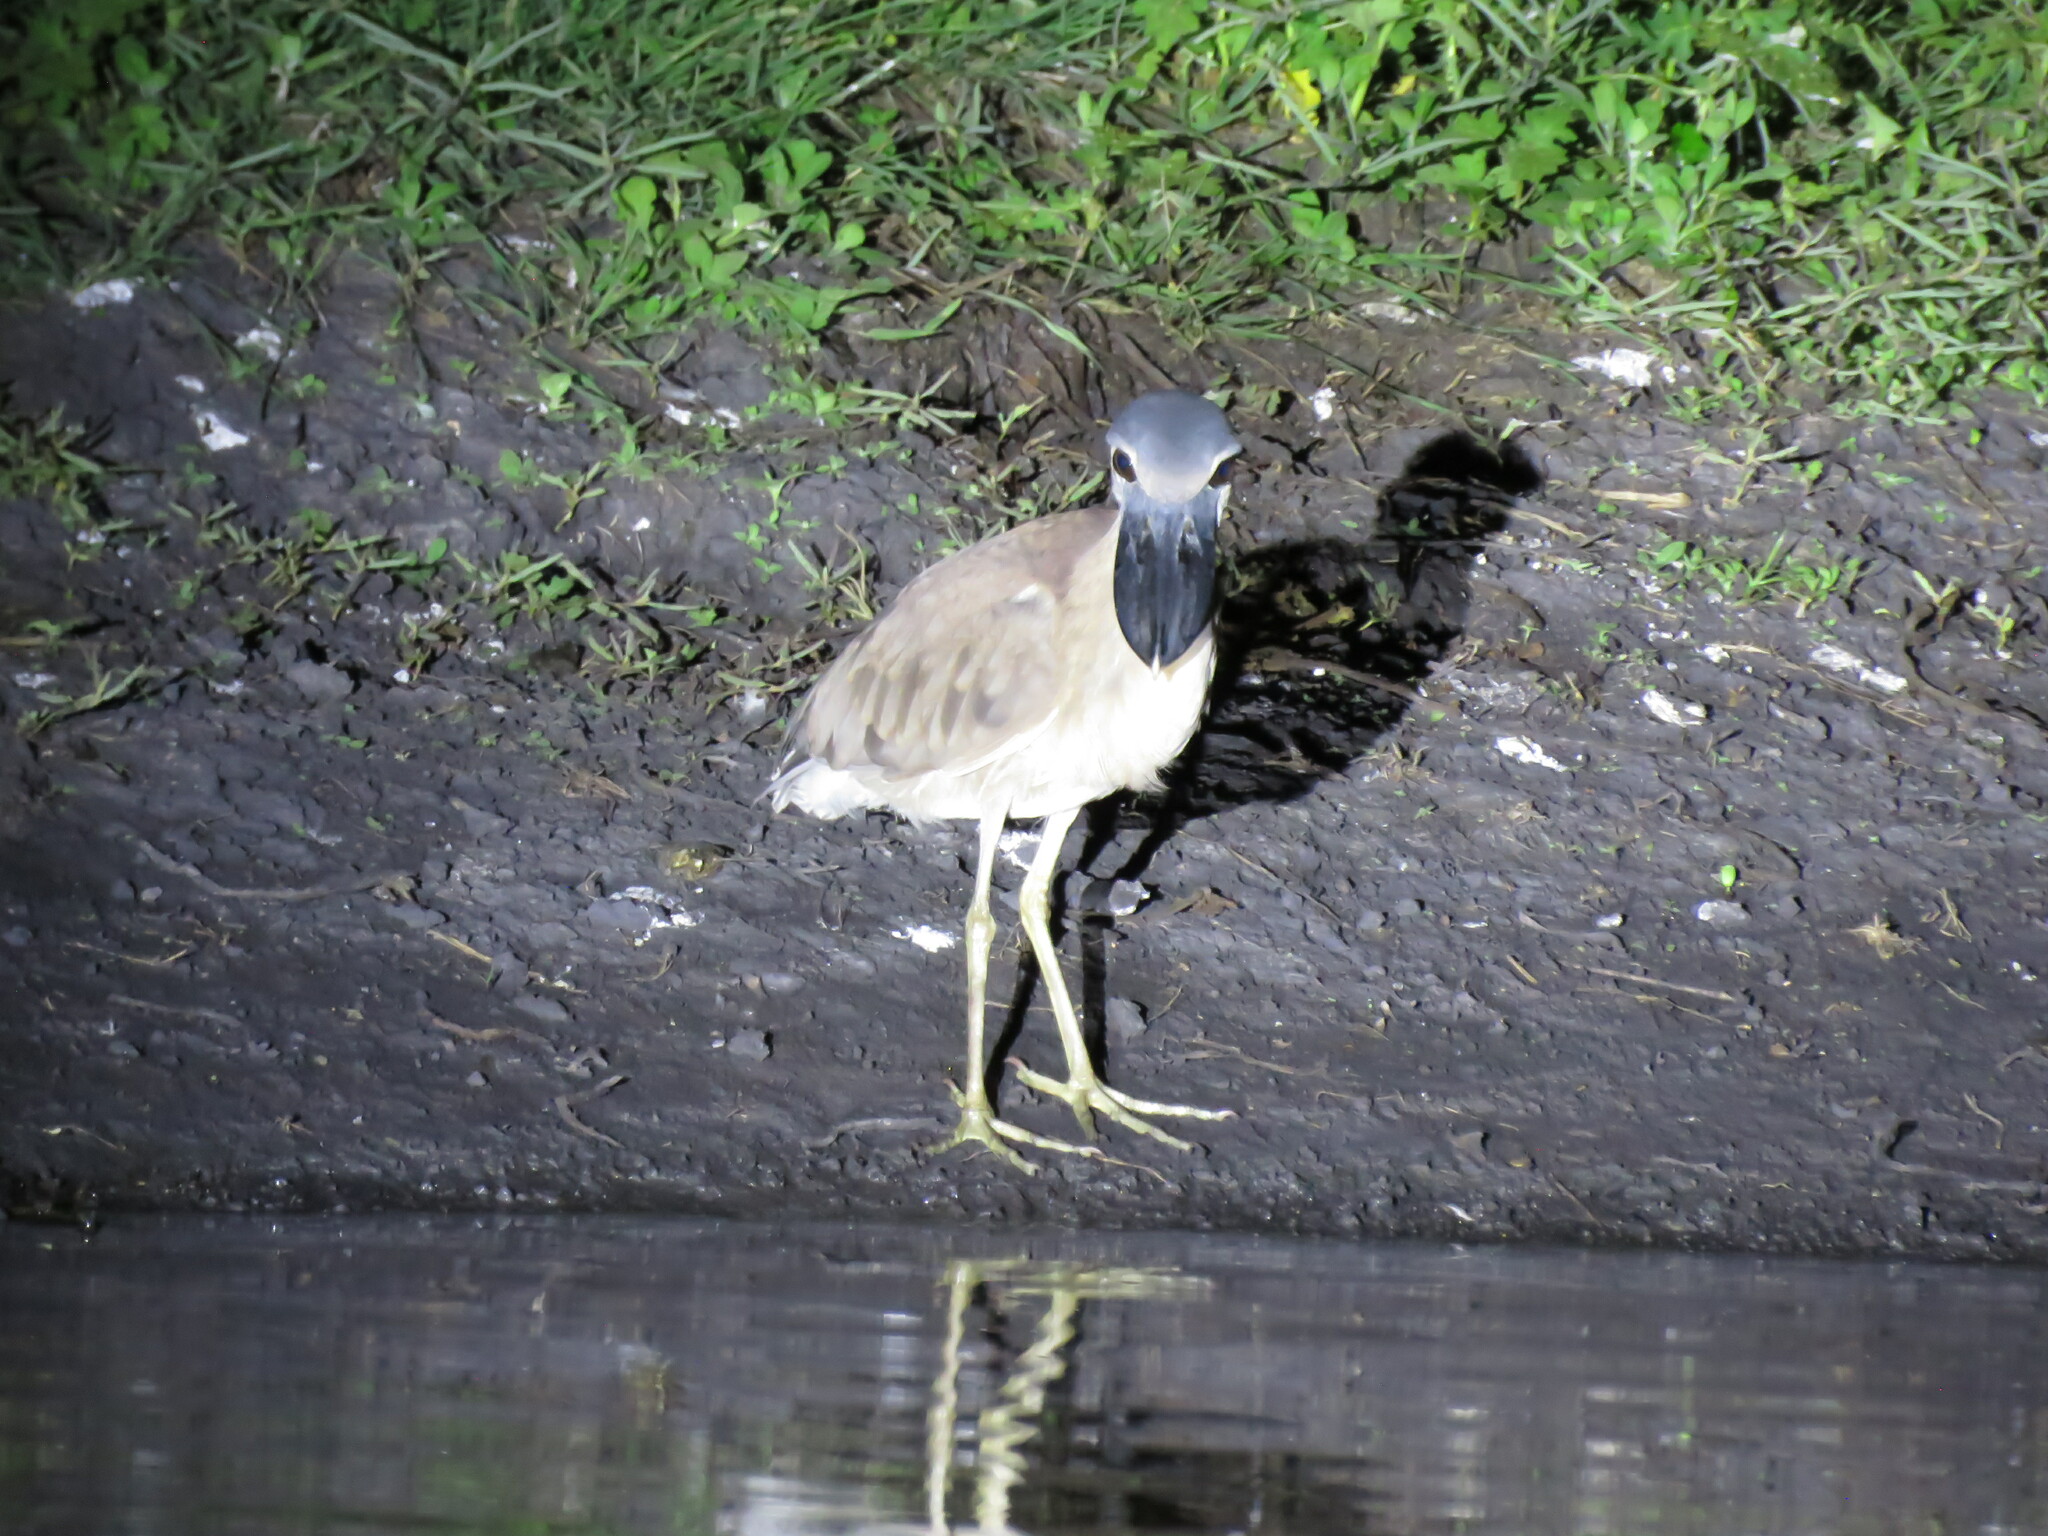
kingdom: Animalia
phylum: Chordata
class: Aves
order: Pelecaniformes
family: Ardeidae
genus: Cochlearius
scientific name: Cochlearius cochlearius
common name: Boat-billed heron
